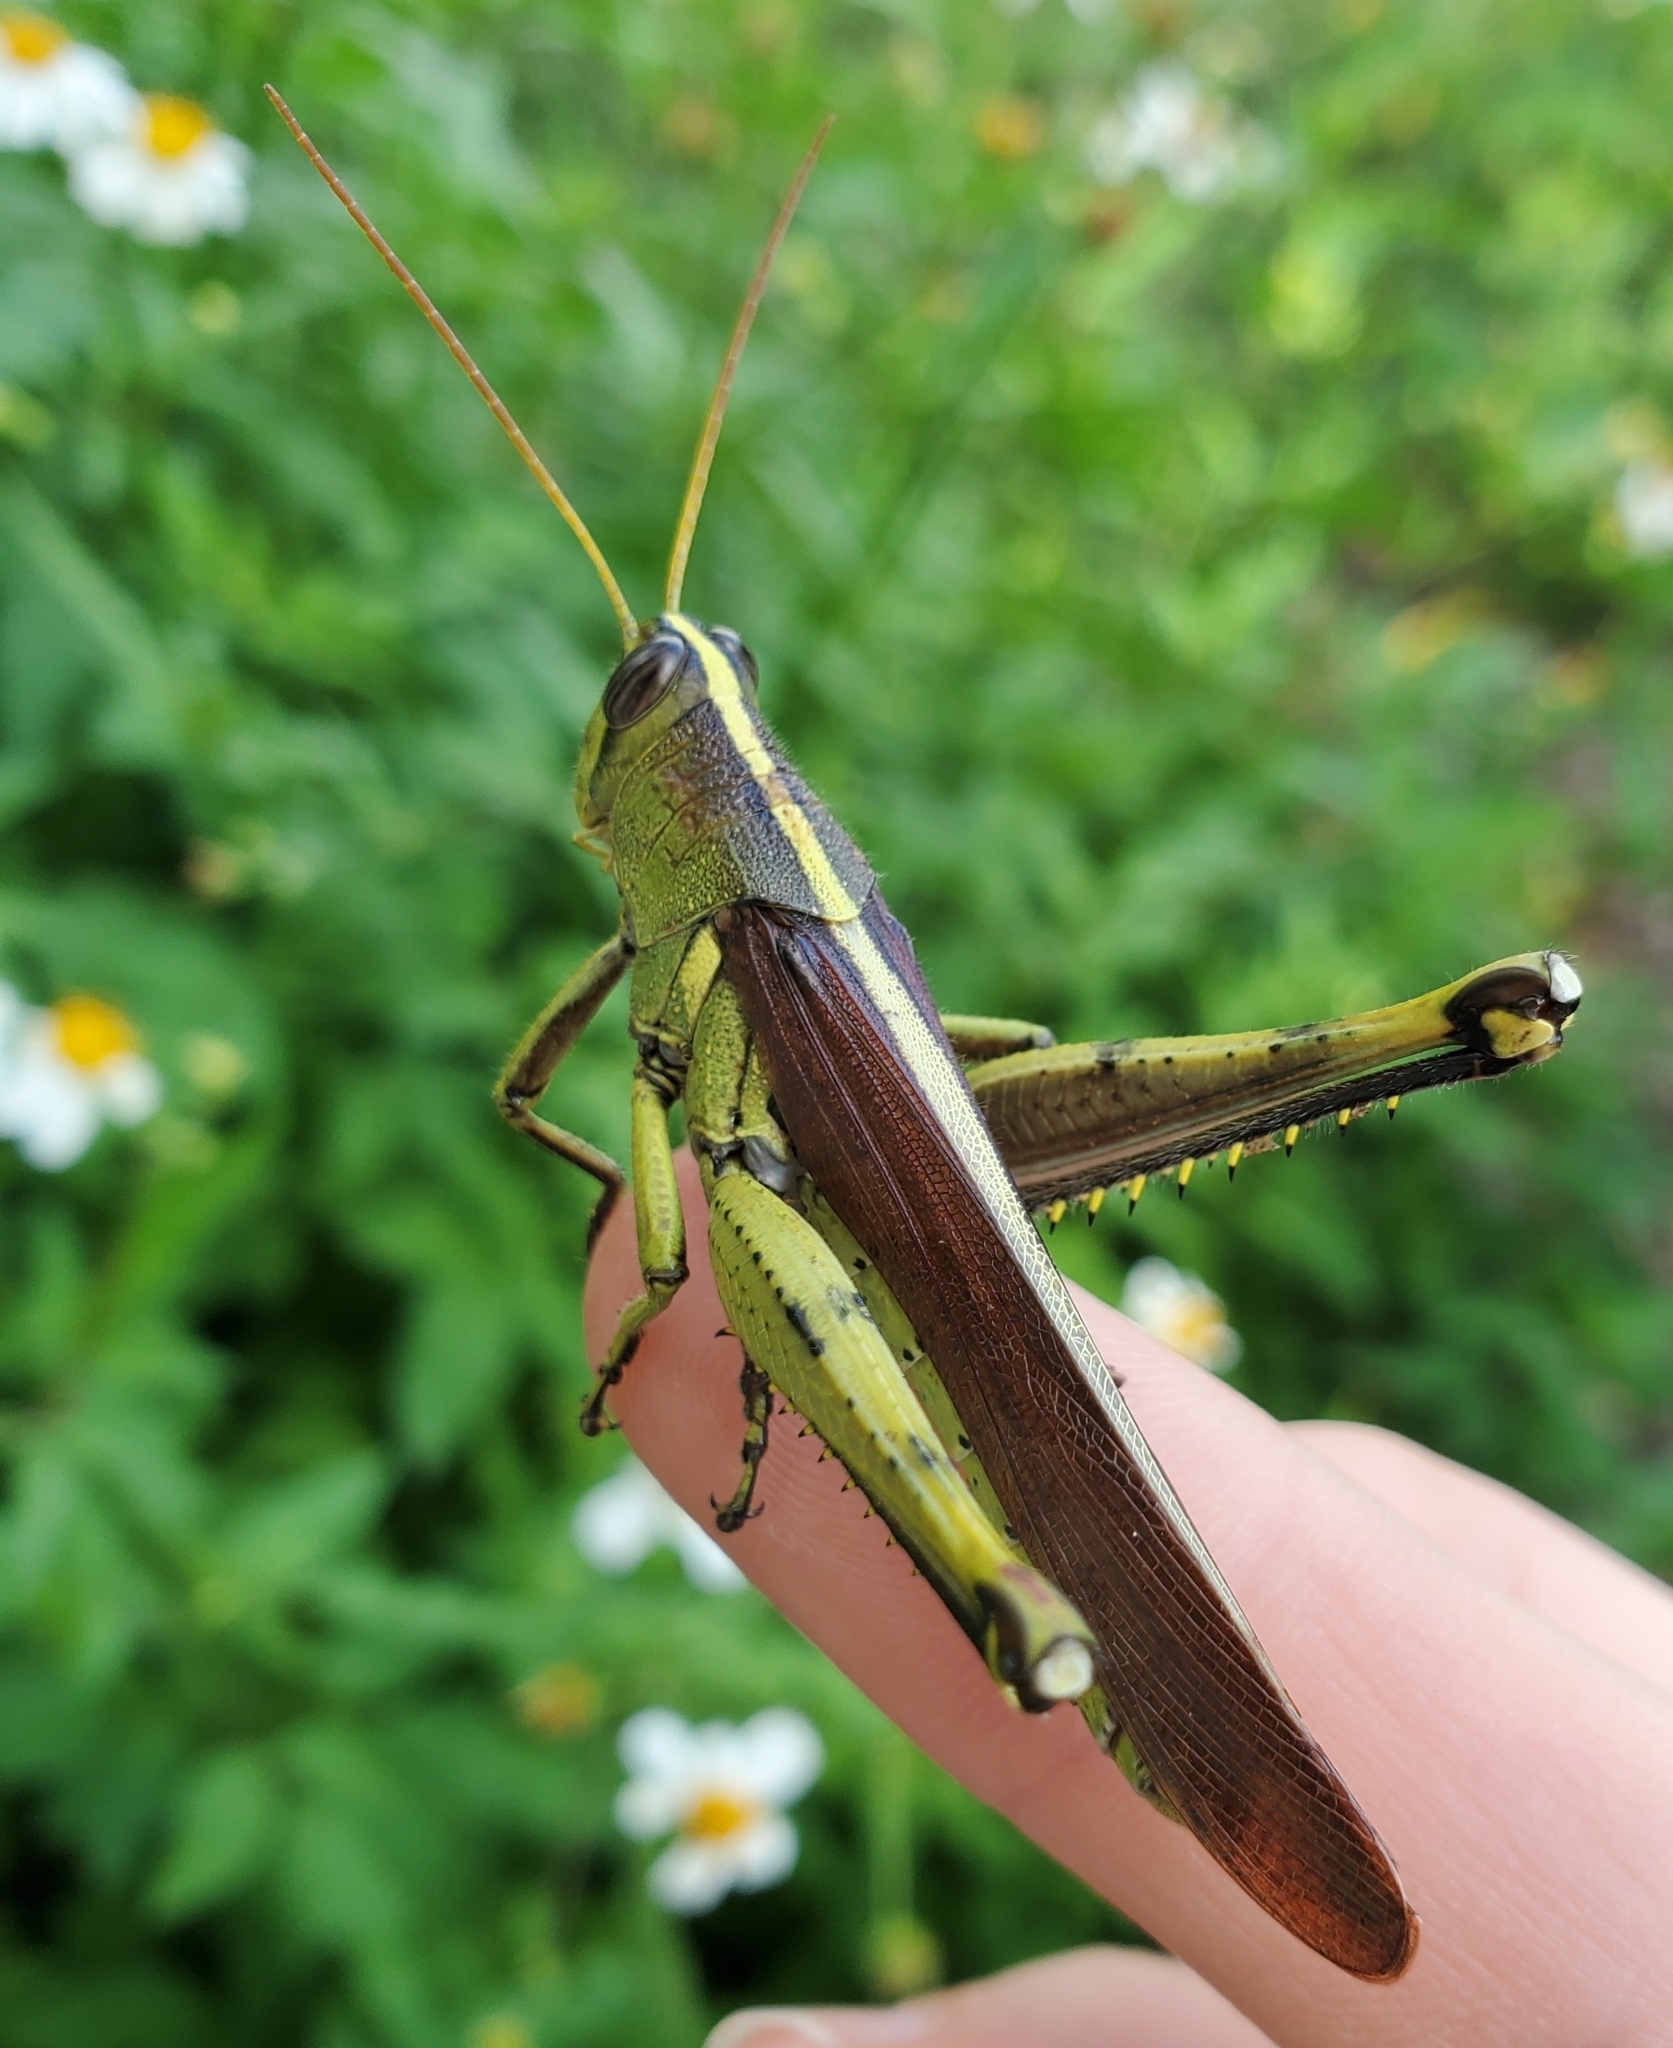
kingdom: Animalia
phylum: Arthropoda
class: Insecta
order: Orthoptera
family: Acrididae
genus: Schistocerca
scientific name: Schistocerca obscura
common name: Obscure bird grasshopper
